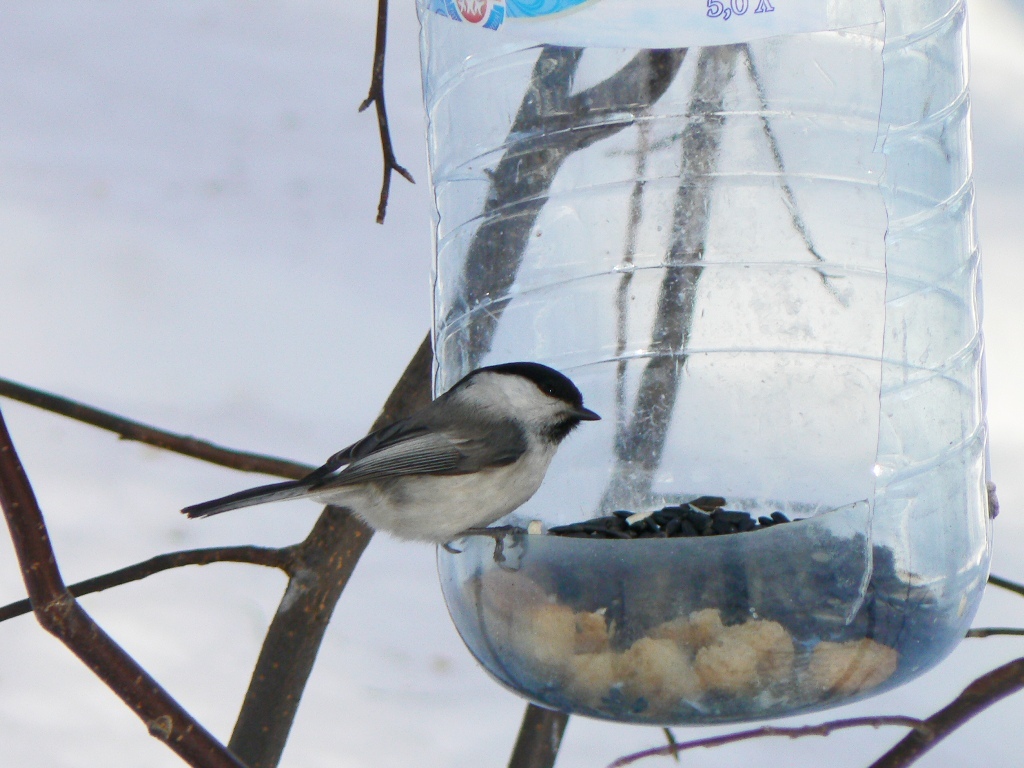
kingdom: Animalia
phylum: Chordata
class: Aves
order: Passeriformes
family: Paridae
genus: Poecile
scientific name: Poecile montanus
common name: Willow tit
